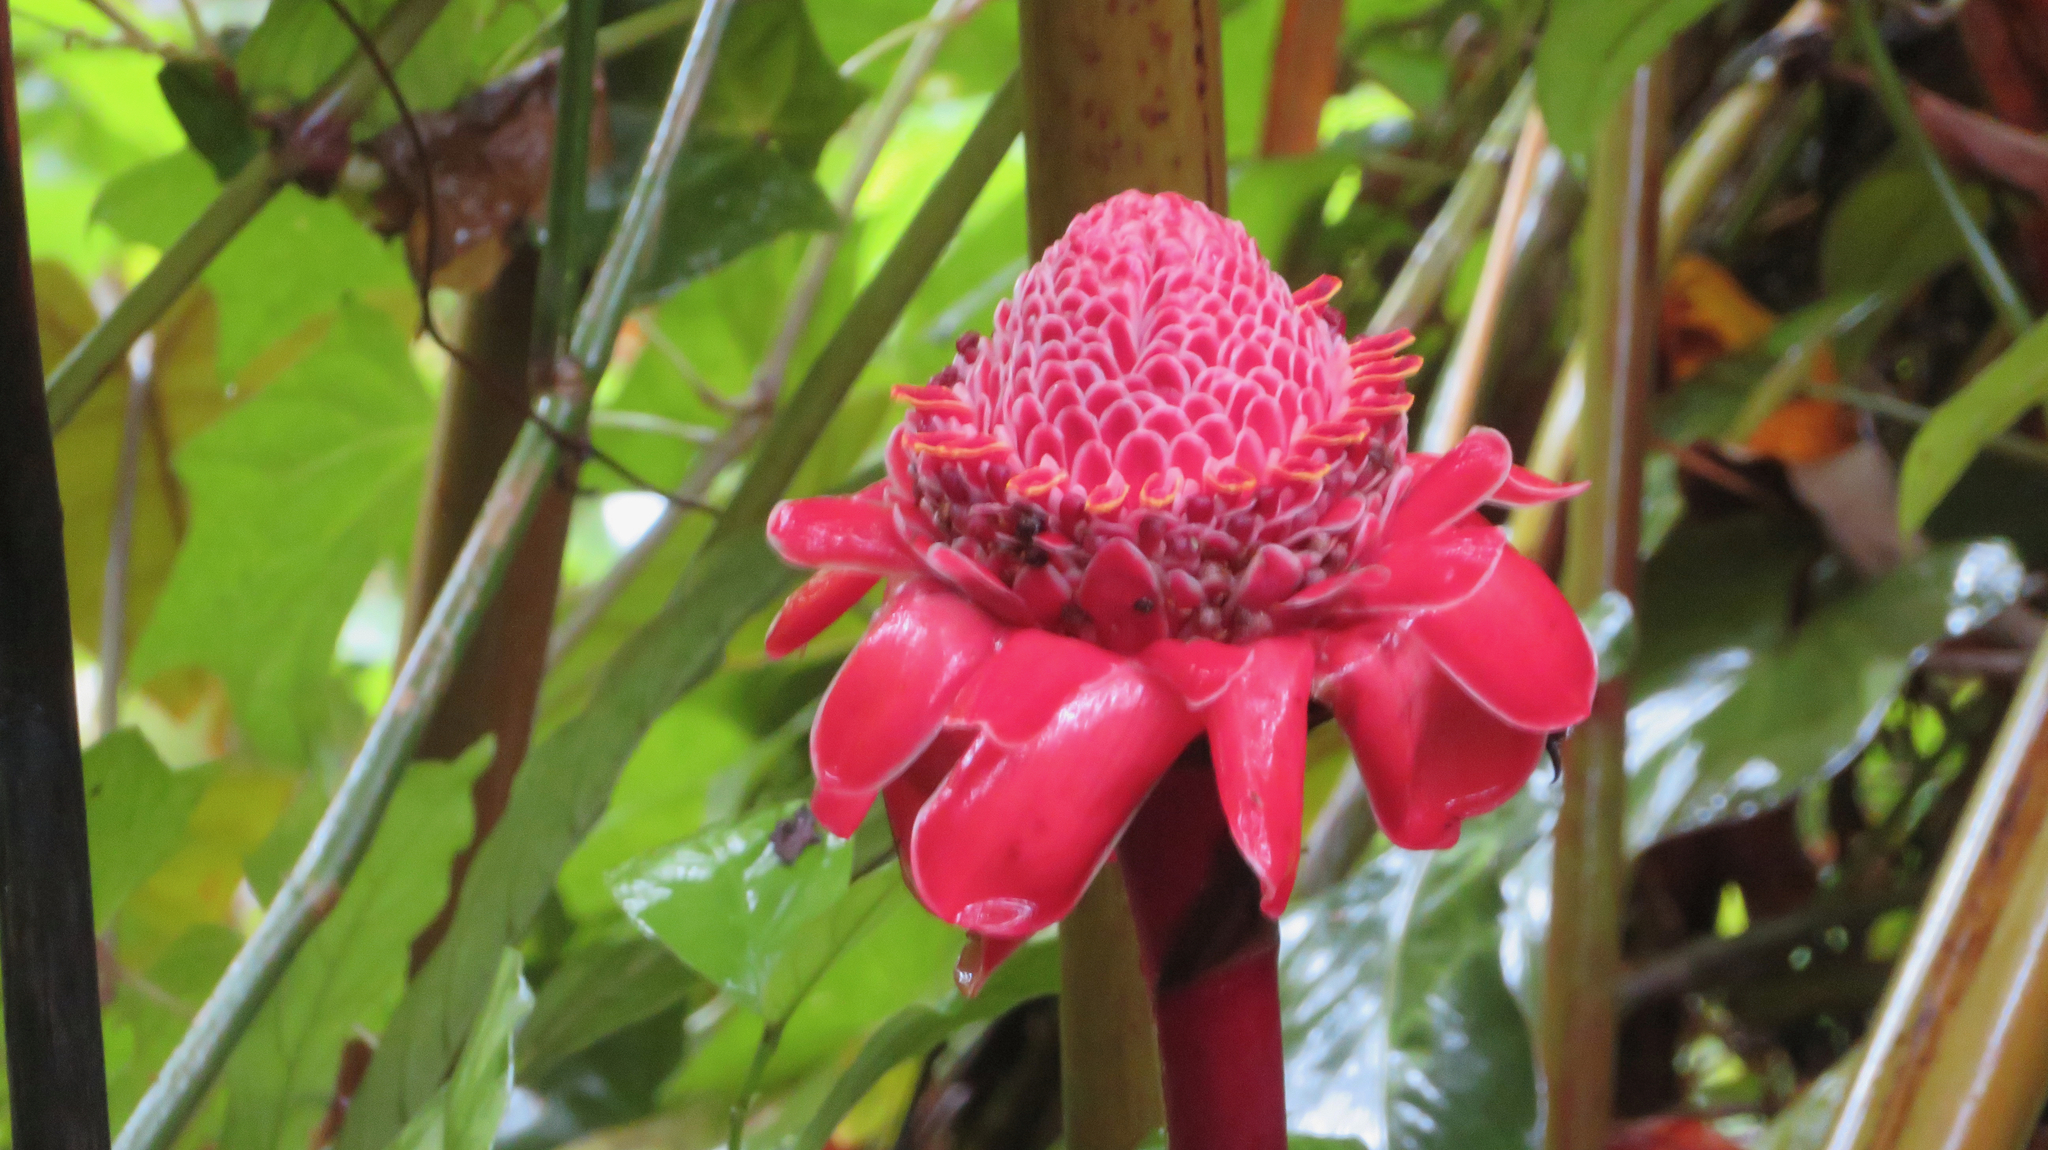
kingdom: Plantae
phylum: Tracheophyta
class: Liliopsida
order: Zingiberales
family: Zingiberaceae
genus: Etlingera
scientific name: Etlingera elatior
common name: Philippine waxflower
